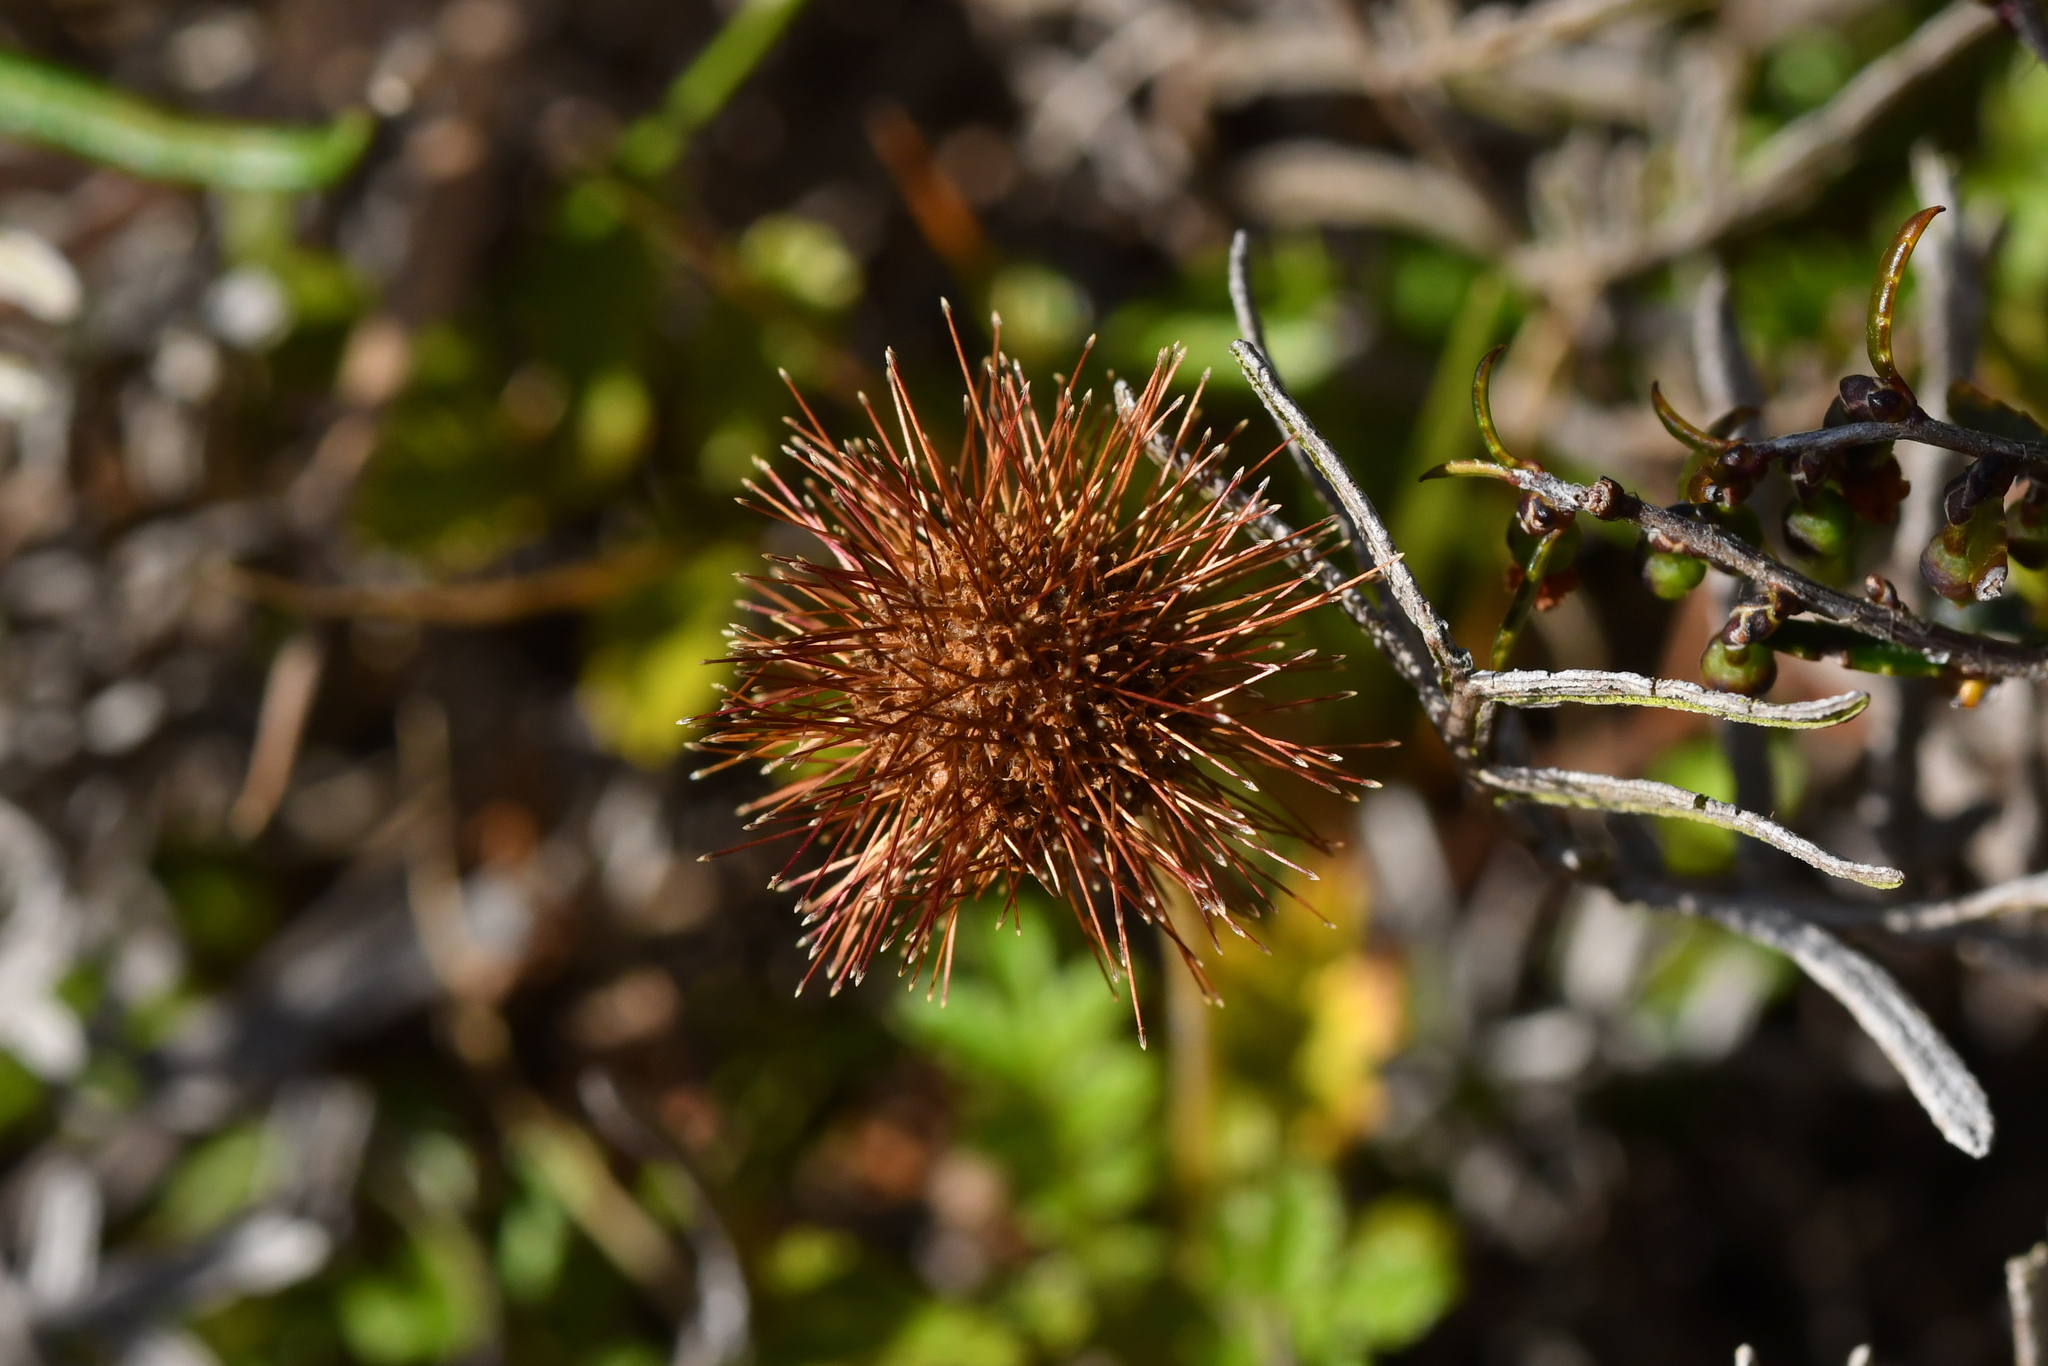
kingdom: Plantae
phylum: Tracheophyta
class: Magnoliopsida
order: Rosales
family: Rosaceae
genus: Acaena
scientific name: Acaena novae-zelandiae
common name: Pirri-pirri-bur
